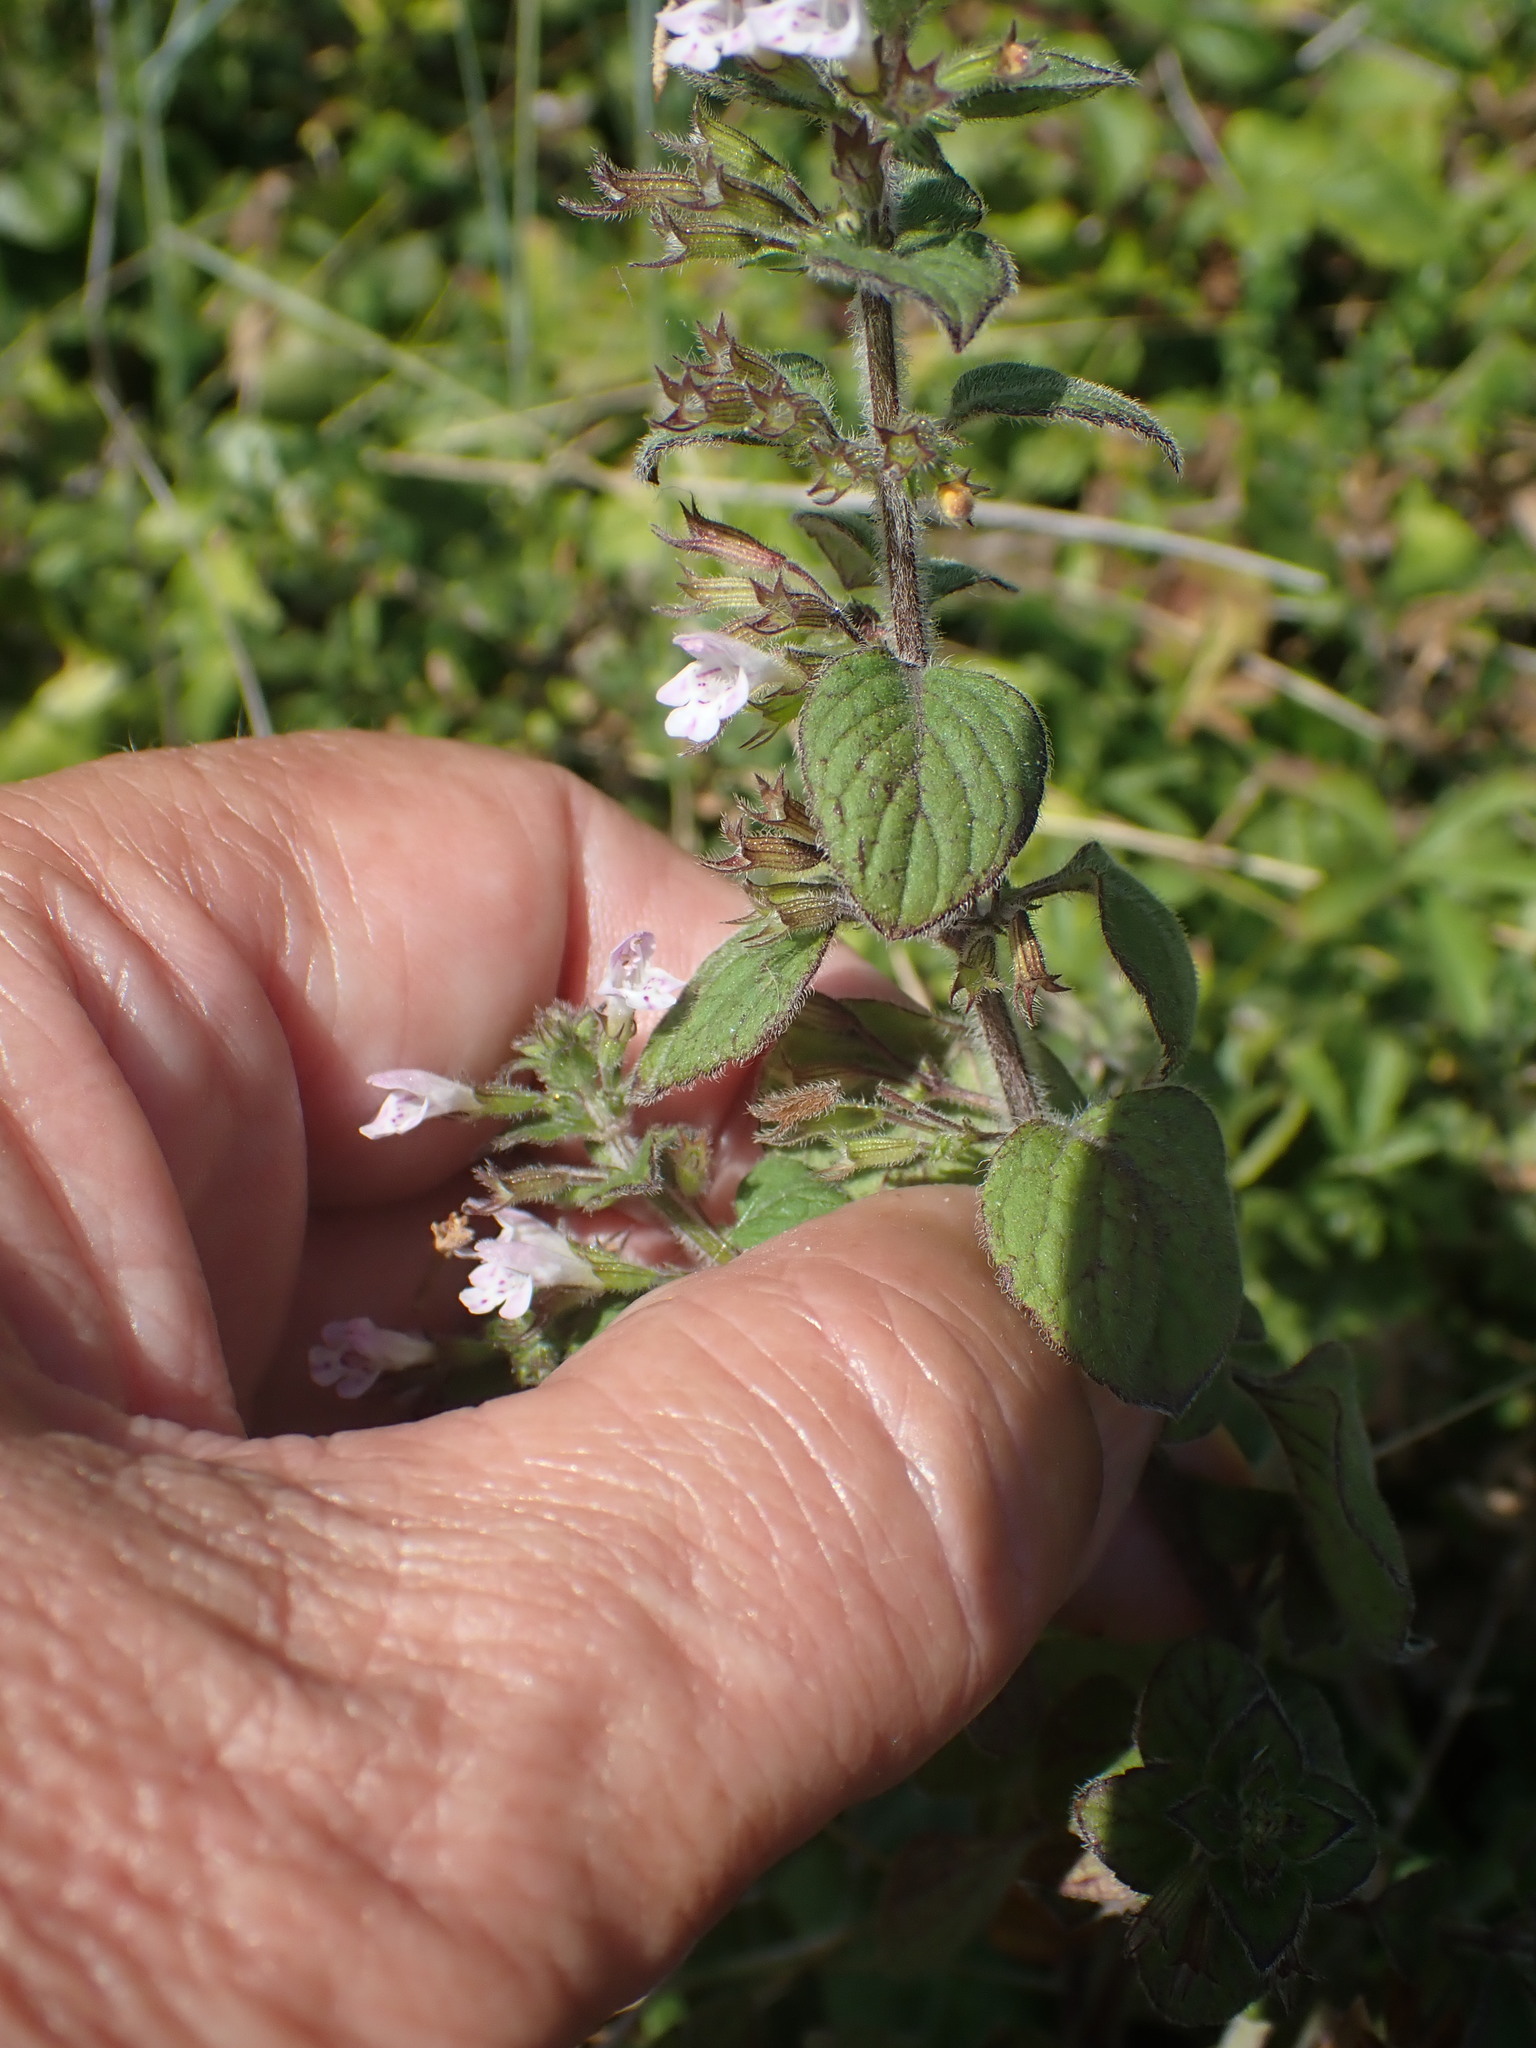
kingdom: Plantae
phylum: Tracheophyta
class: Magnoliopsida
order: Lamiales
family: Lamiaceae
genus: Clinopodium
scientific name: Clinopodium menthifolium
